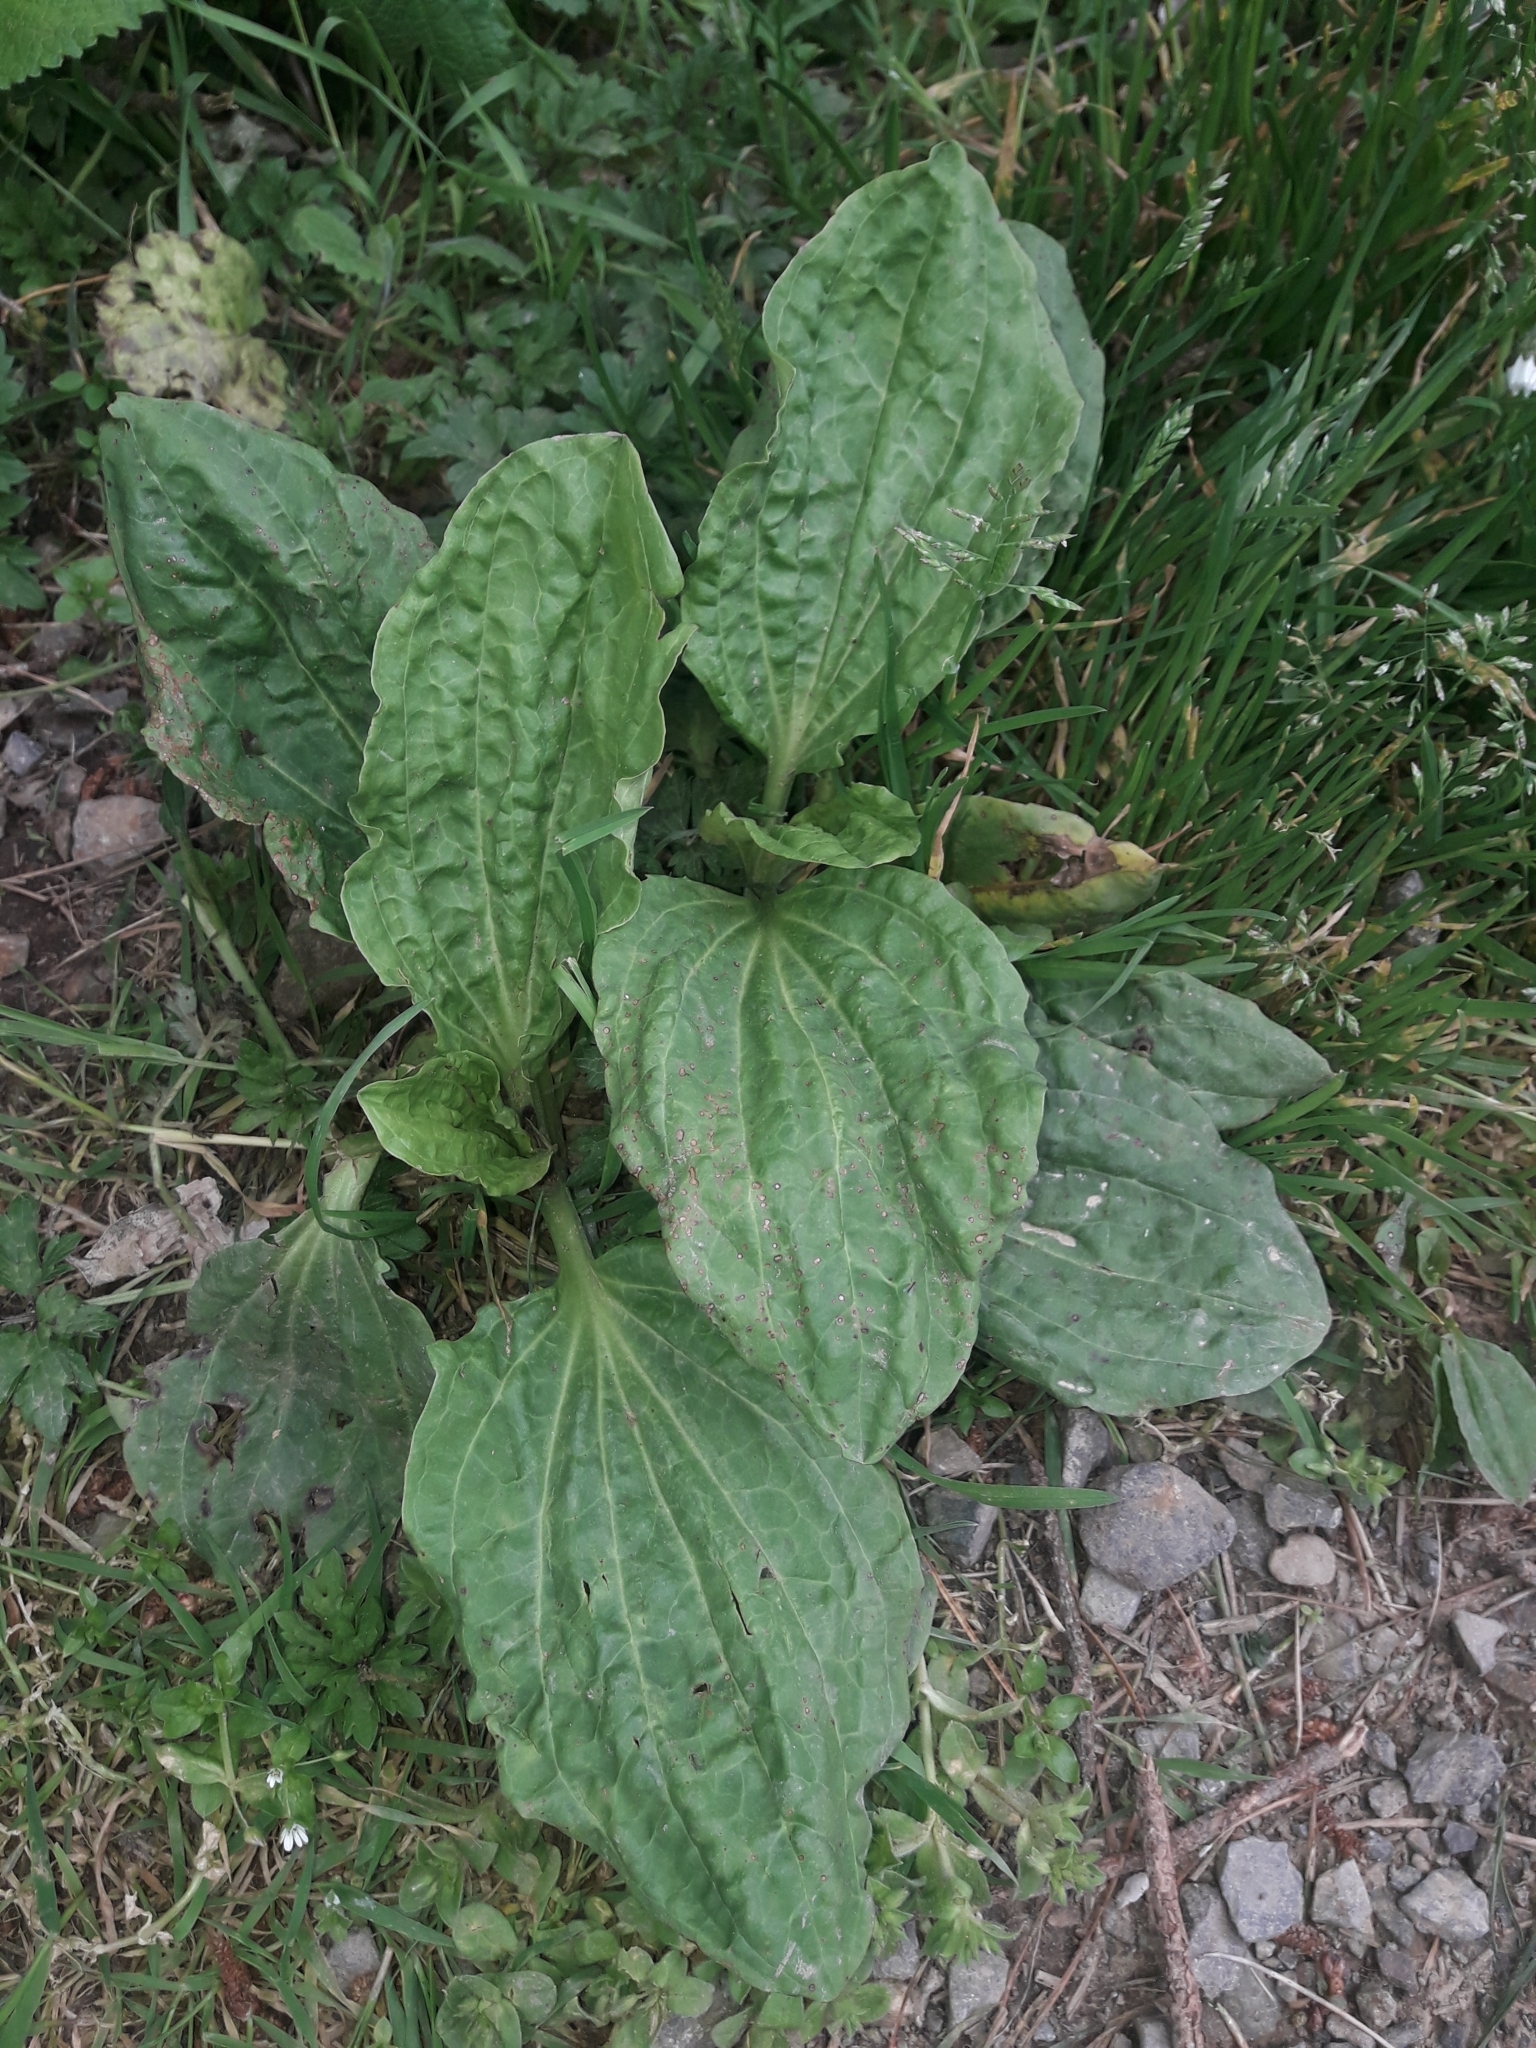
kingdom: Plantae
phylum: Tracheophyta
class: Magnoliopsida
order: Lamiales
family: Plantaginaceae
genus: Plantago
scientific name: Plantago major
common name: Common plantain
